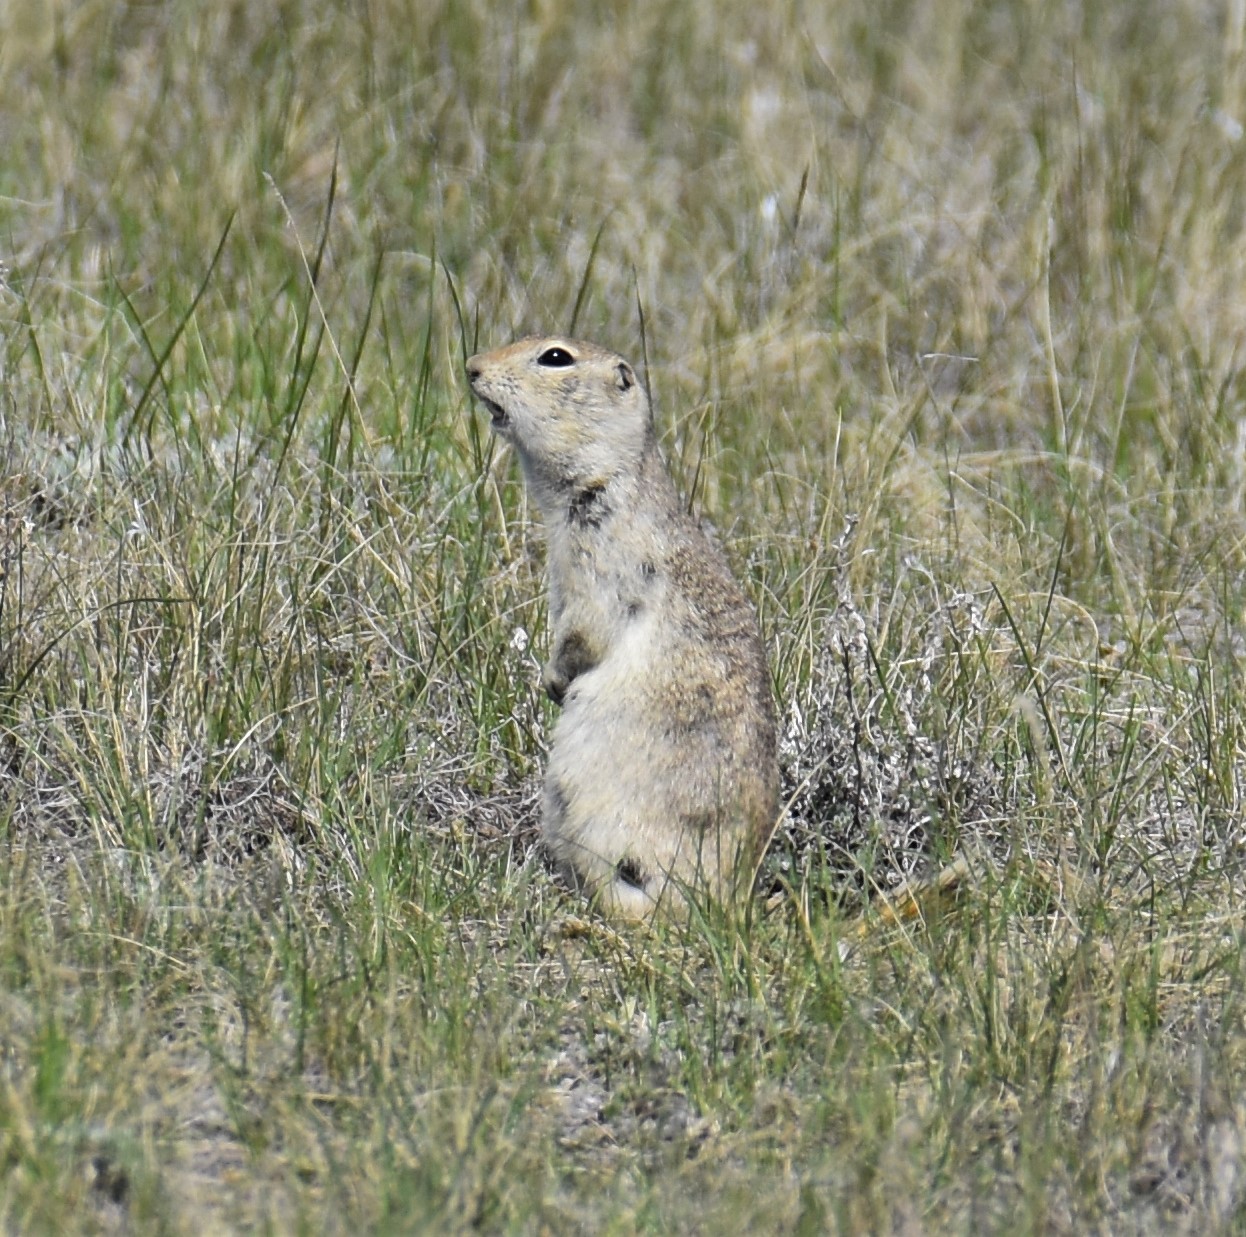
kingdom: Animalia
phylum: Chordata
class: Mammalia
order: Rodentia
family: Sciuridae
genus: Urocitellus
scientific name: Urocitellus richardsonii
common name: Richardson's ground squirrel
